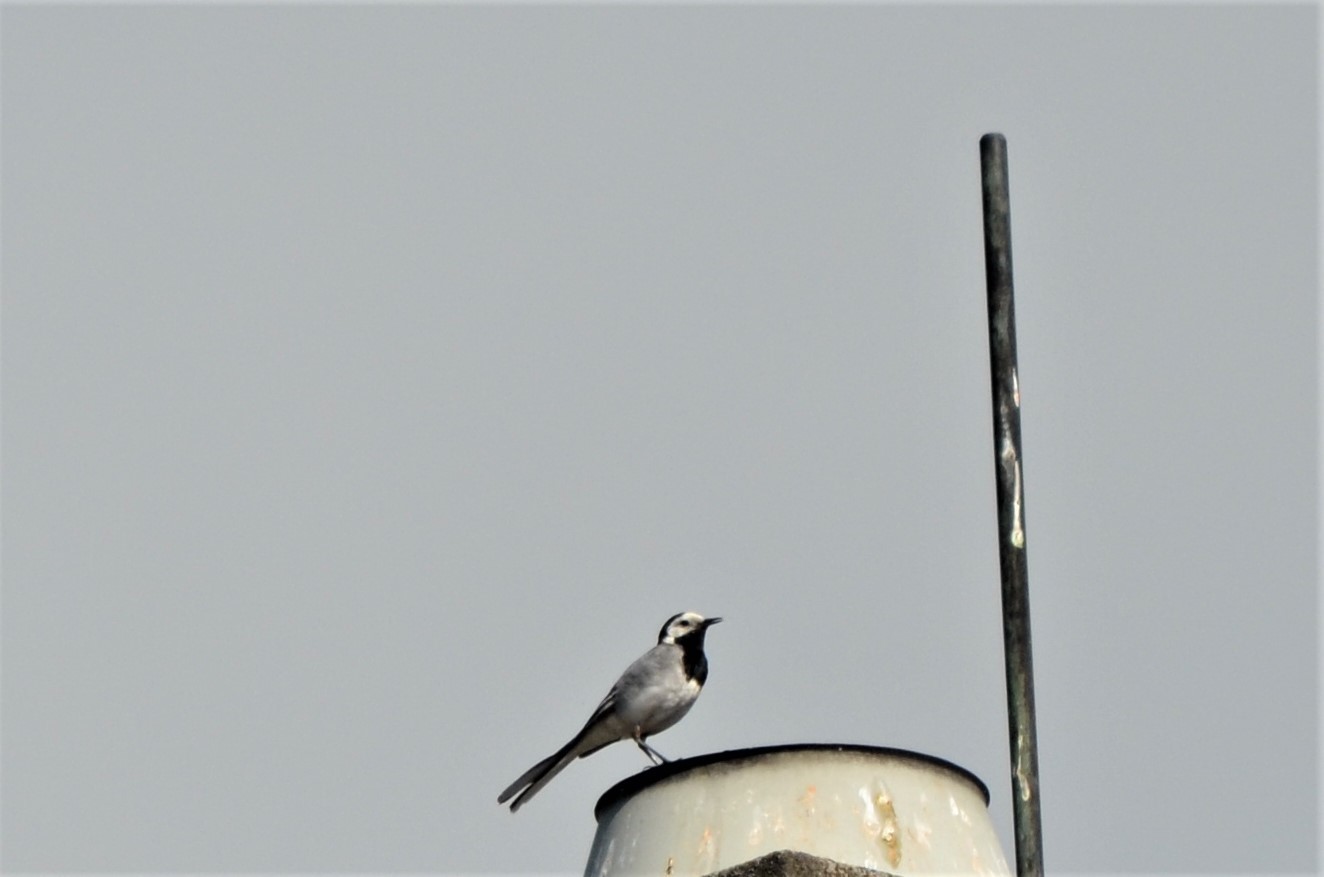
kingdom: Animalia
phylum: Chordata
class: Aves
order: Passeriformes
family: Motacillidae
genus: Motacilla
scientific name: Motacilla alba
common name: White wagtail
